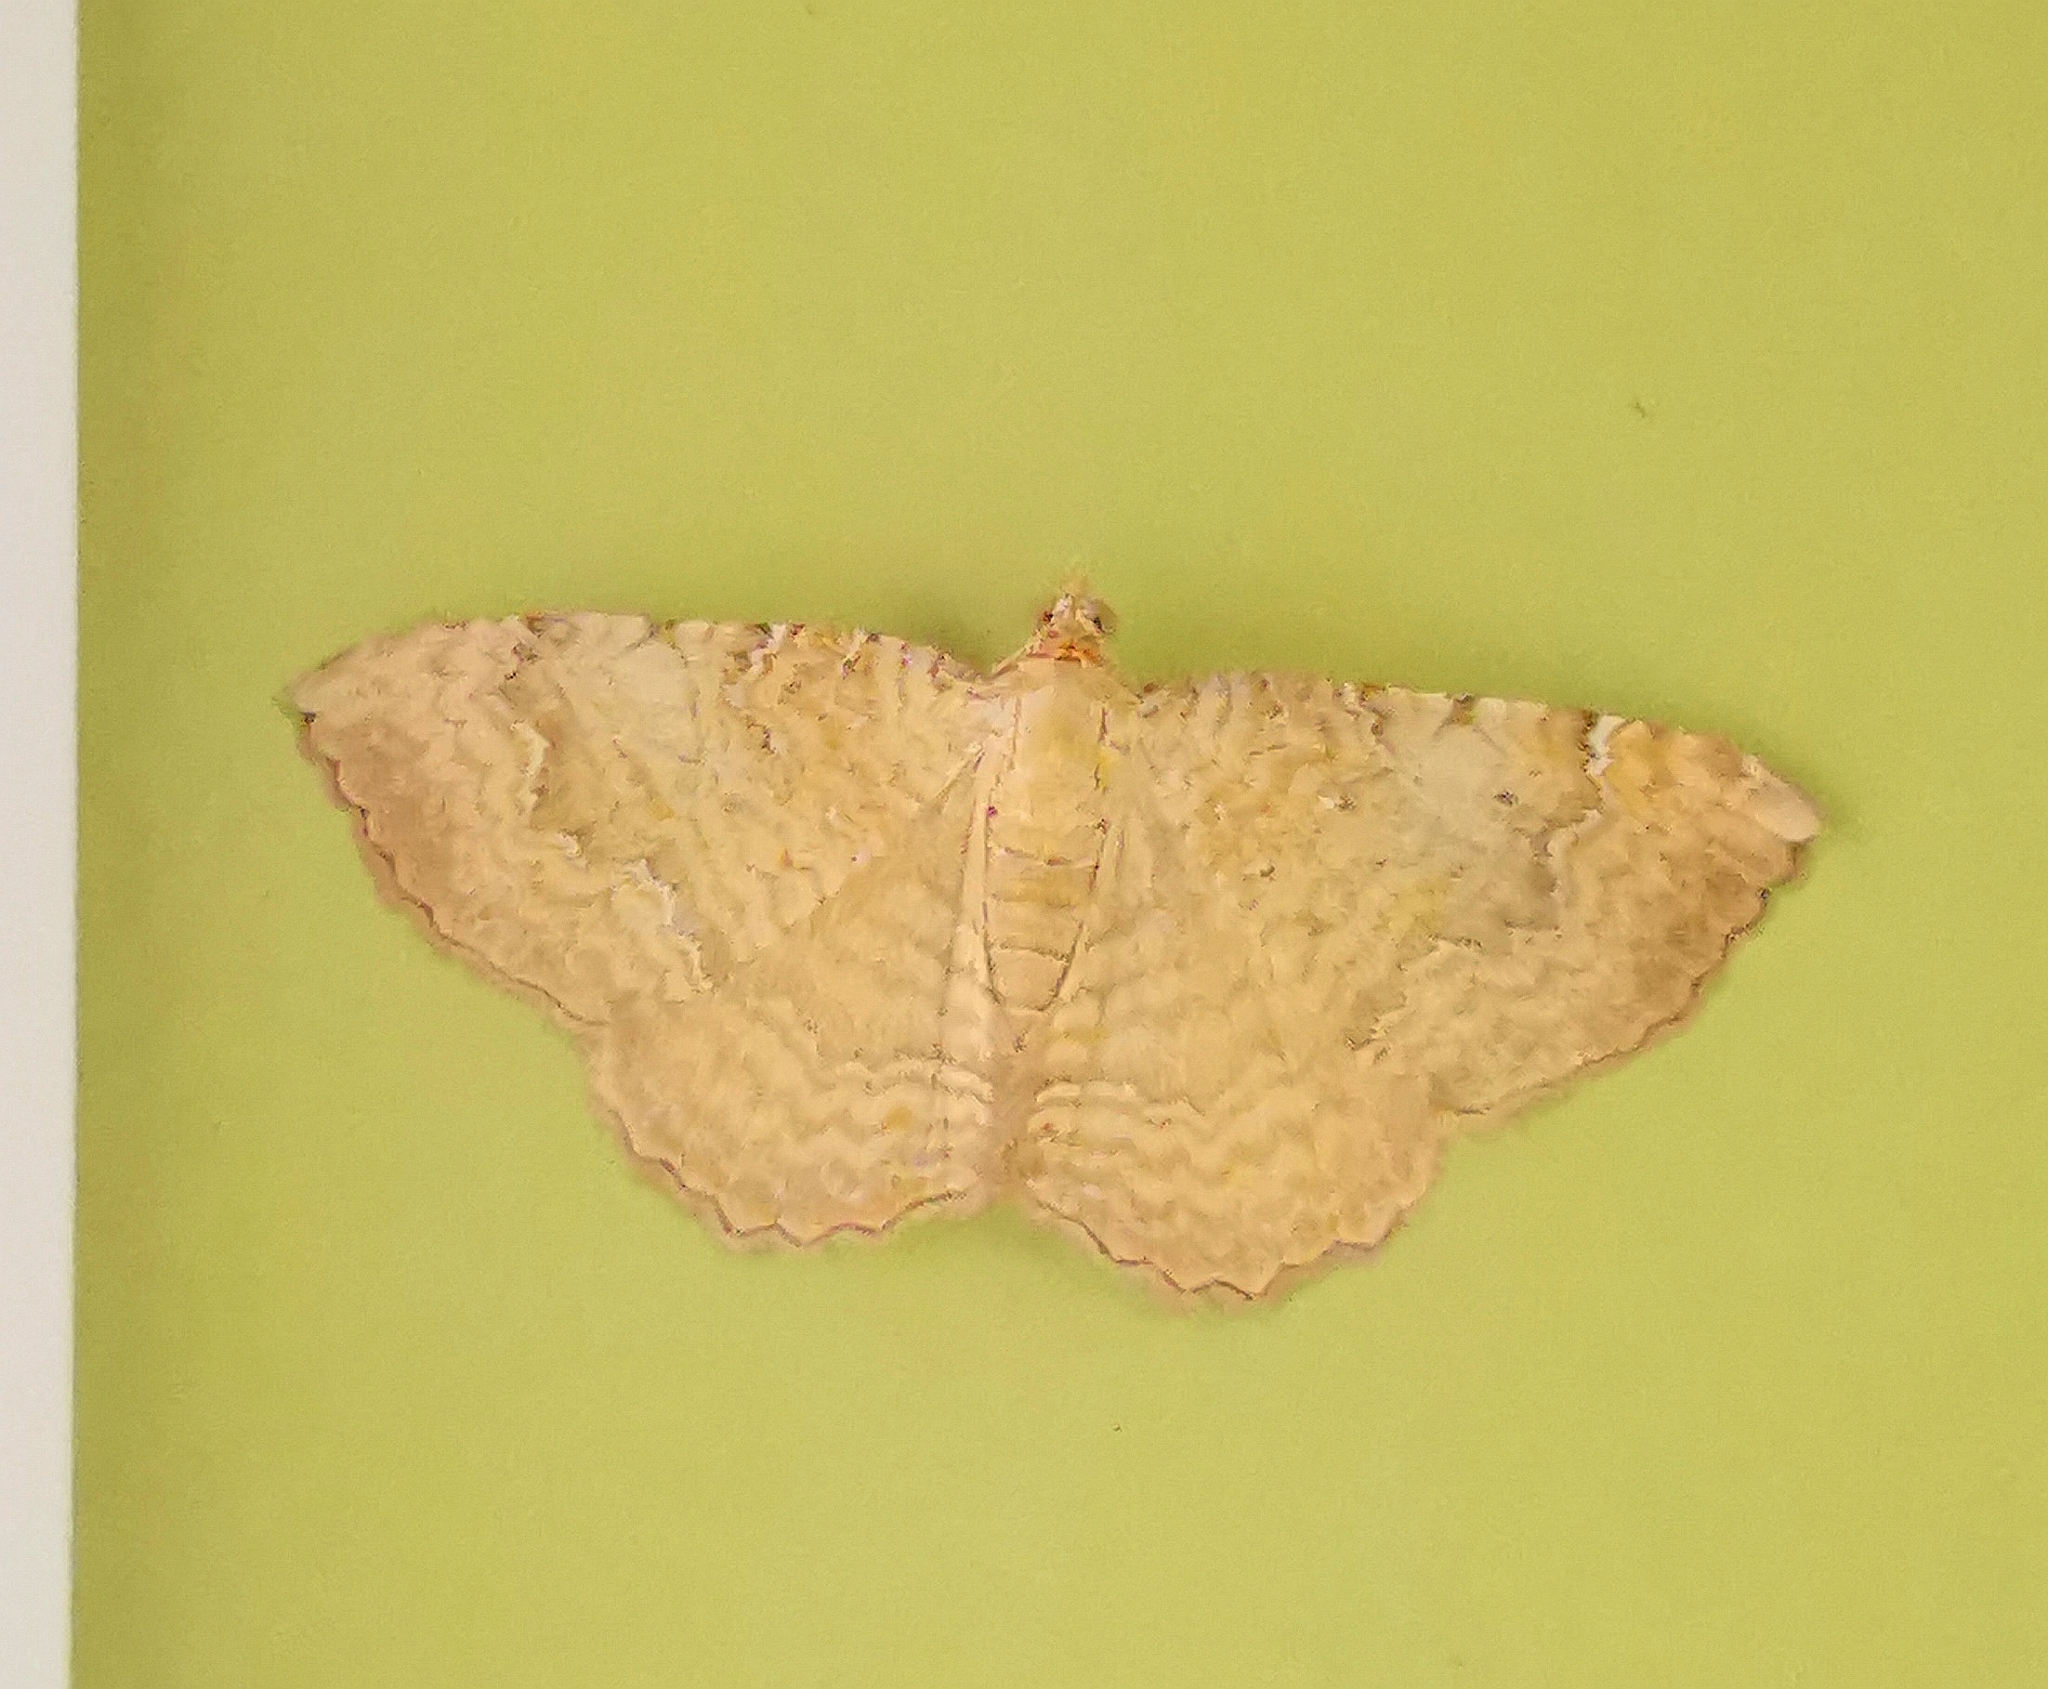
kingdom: Animalia
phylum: Arthropoda
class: Insecta
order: Lepidoptera
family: Geometridae
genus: Camptogramma
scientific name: Camptogramma bilineata
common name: Yellow shell
